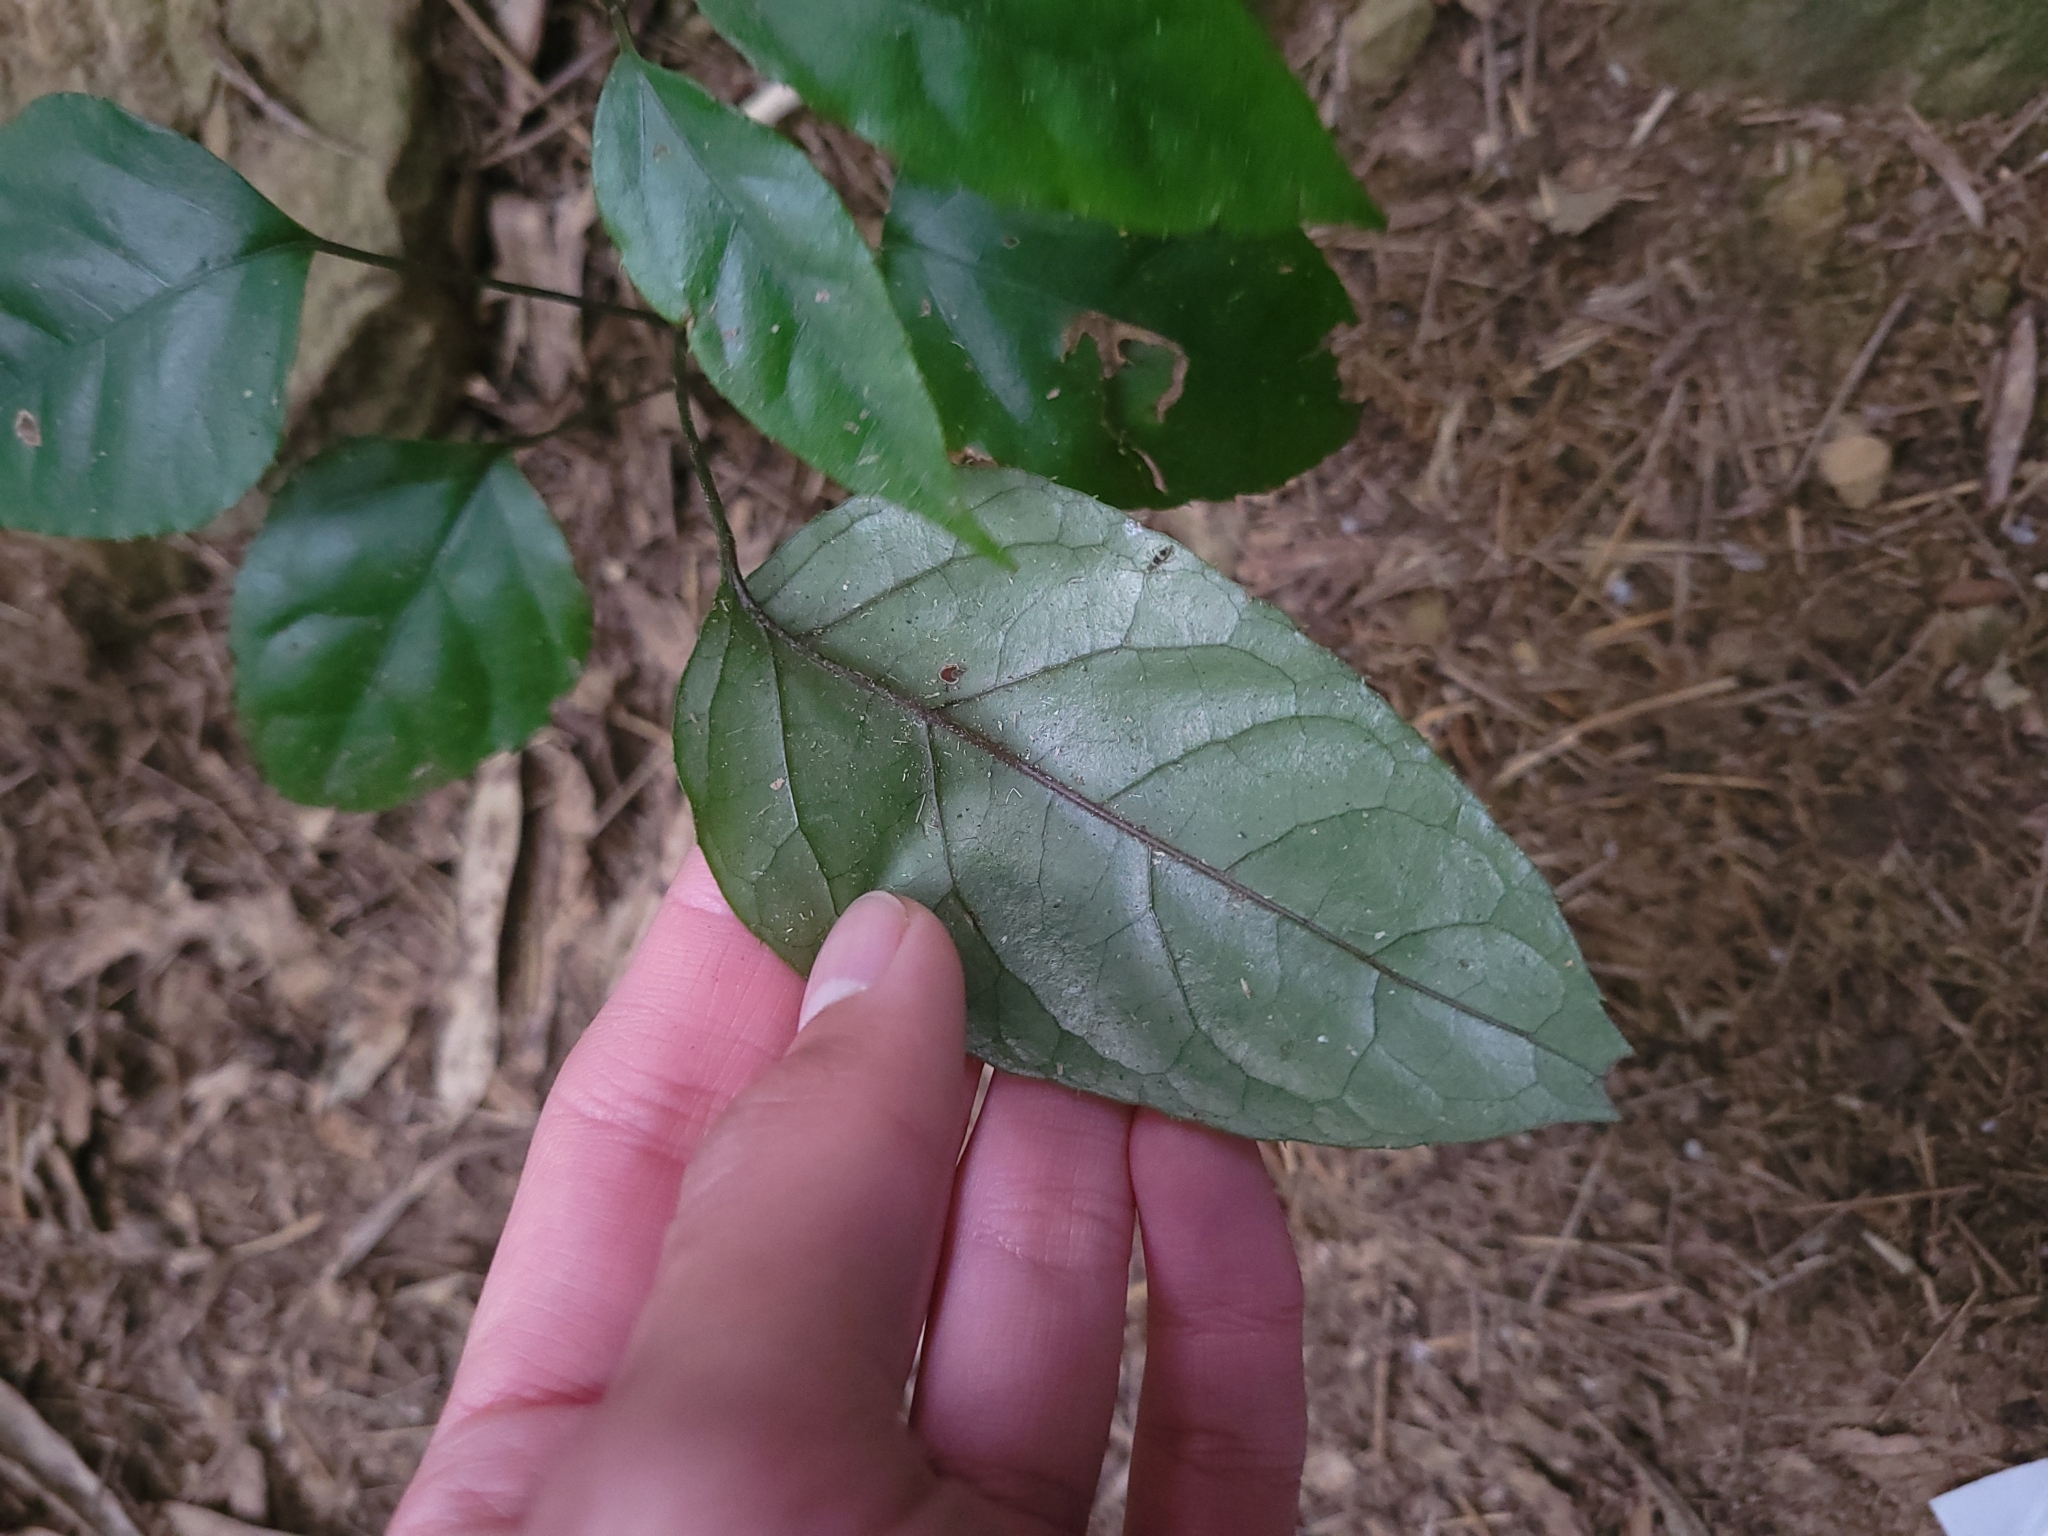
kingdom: Plantae
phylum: Tracheophyta
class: Magnoliopsida
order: Apiales
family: Araliaceae
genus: Heptapleurum
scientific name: Heptapleurum heptaphyllum
